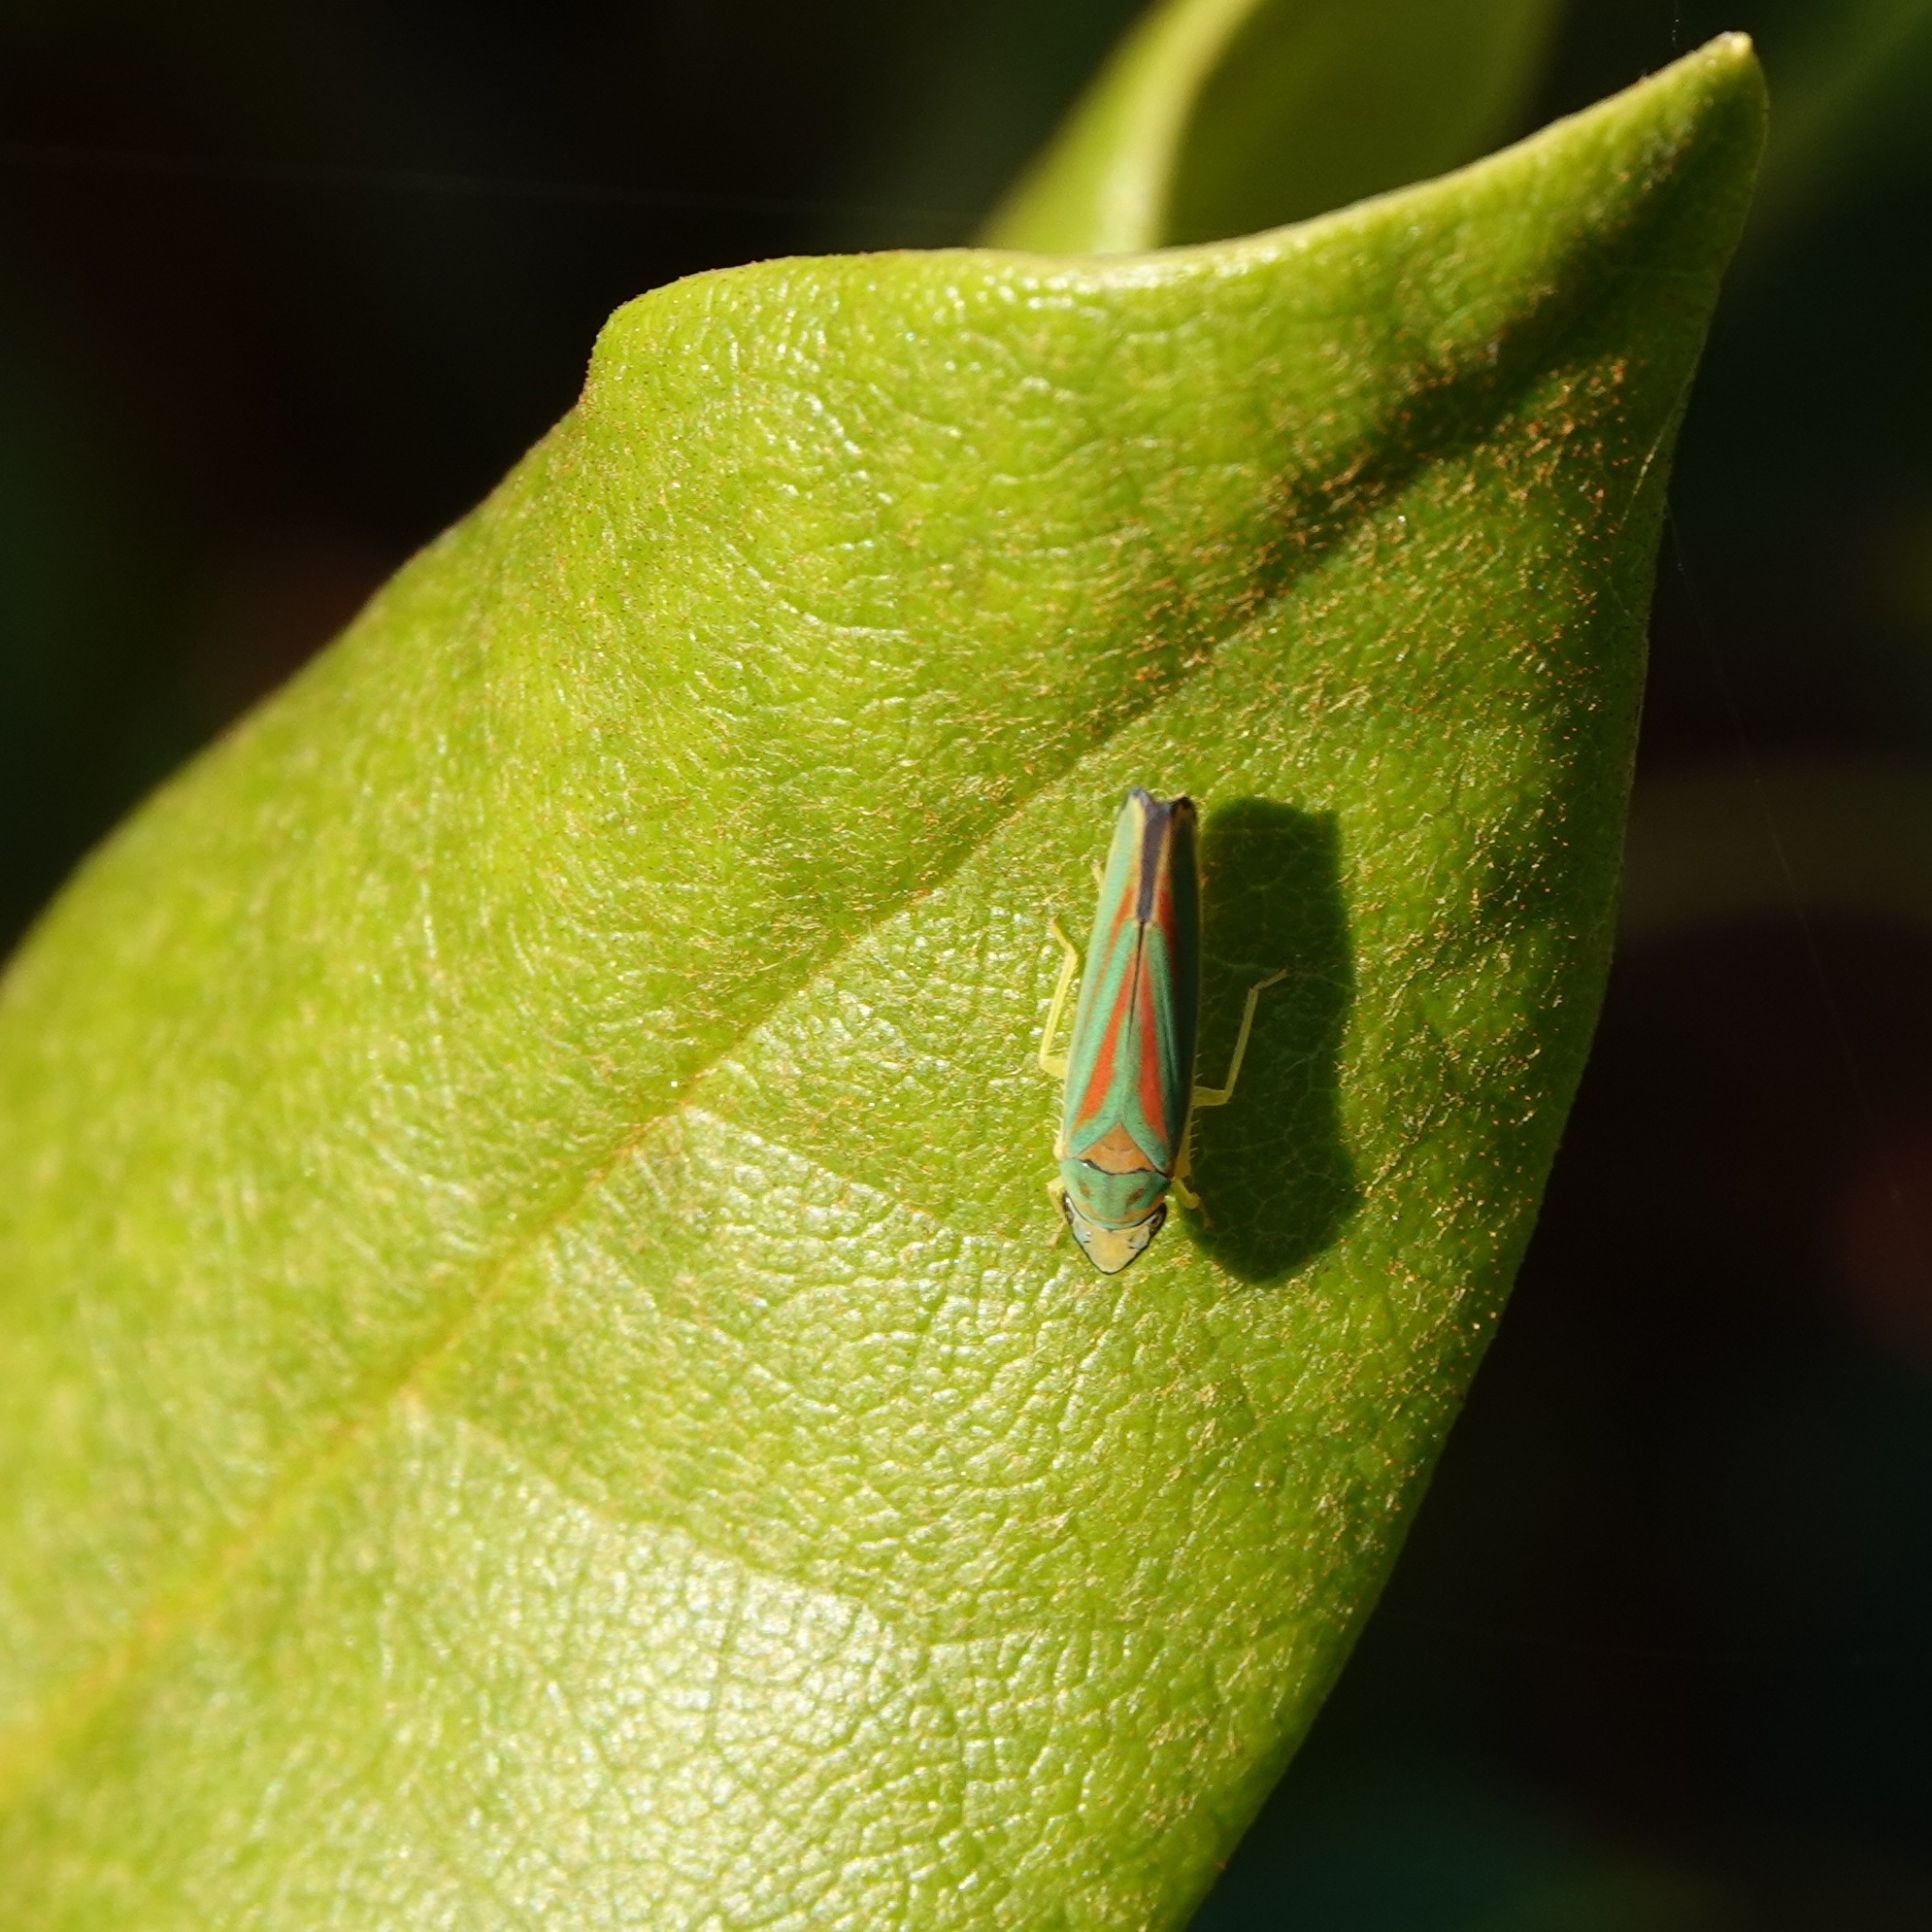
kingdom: Animalia
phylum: Arthropoda
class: Insecta
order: Hemiptera
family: Cicadellidae
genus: Graphocephala
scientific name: Graphocephala fennahi
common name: Rhododendron leafhopper
